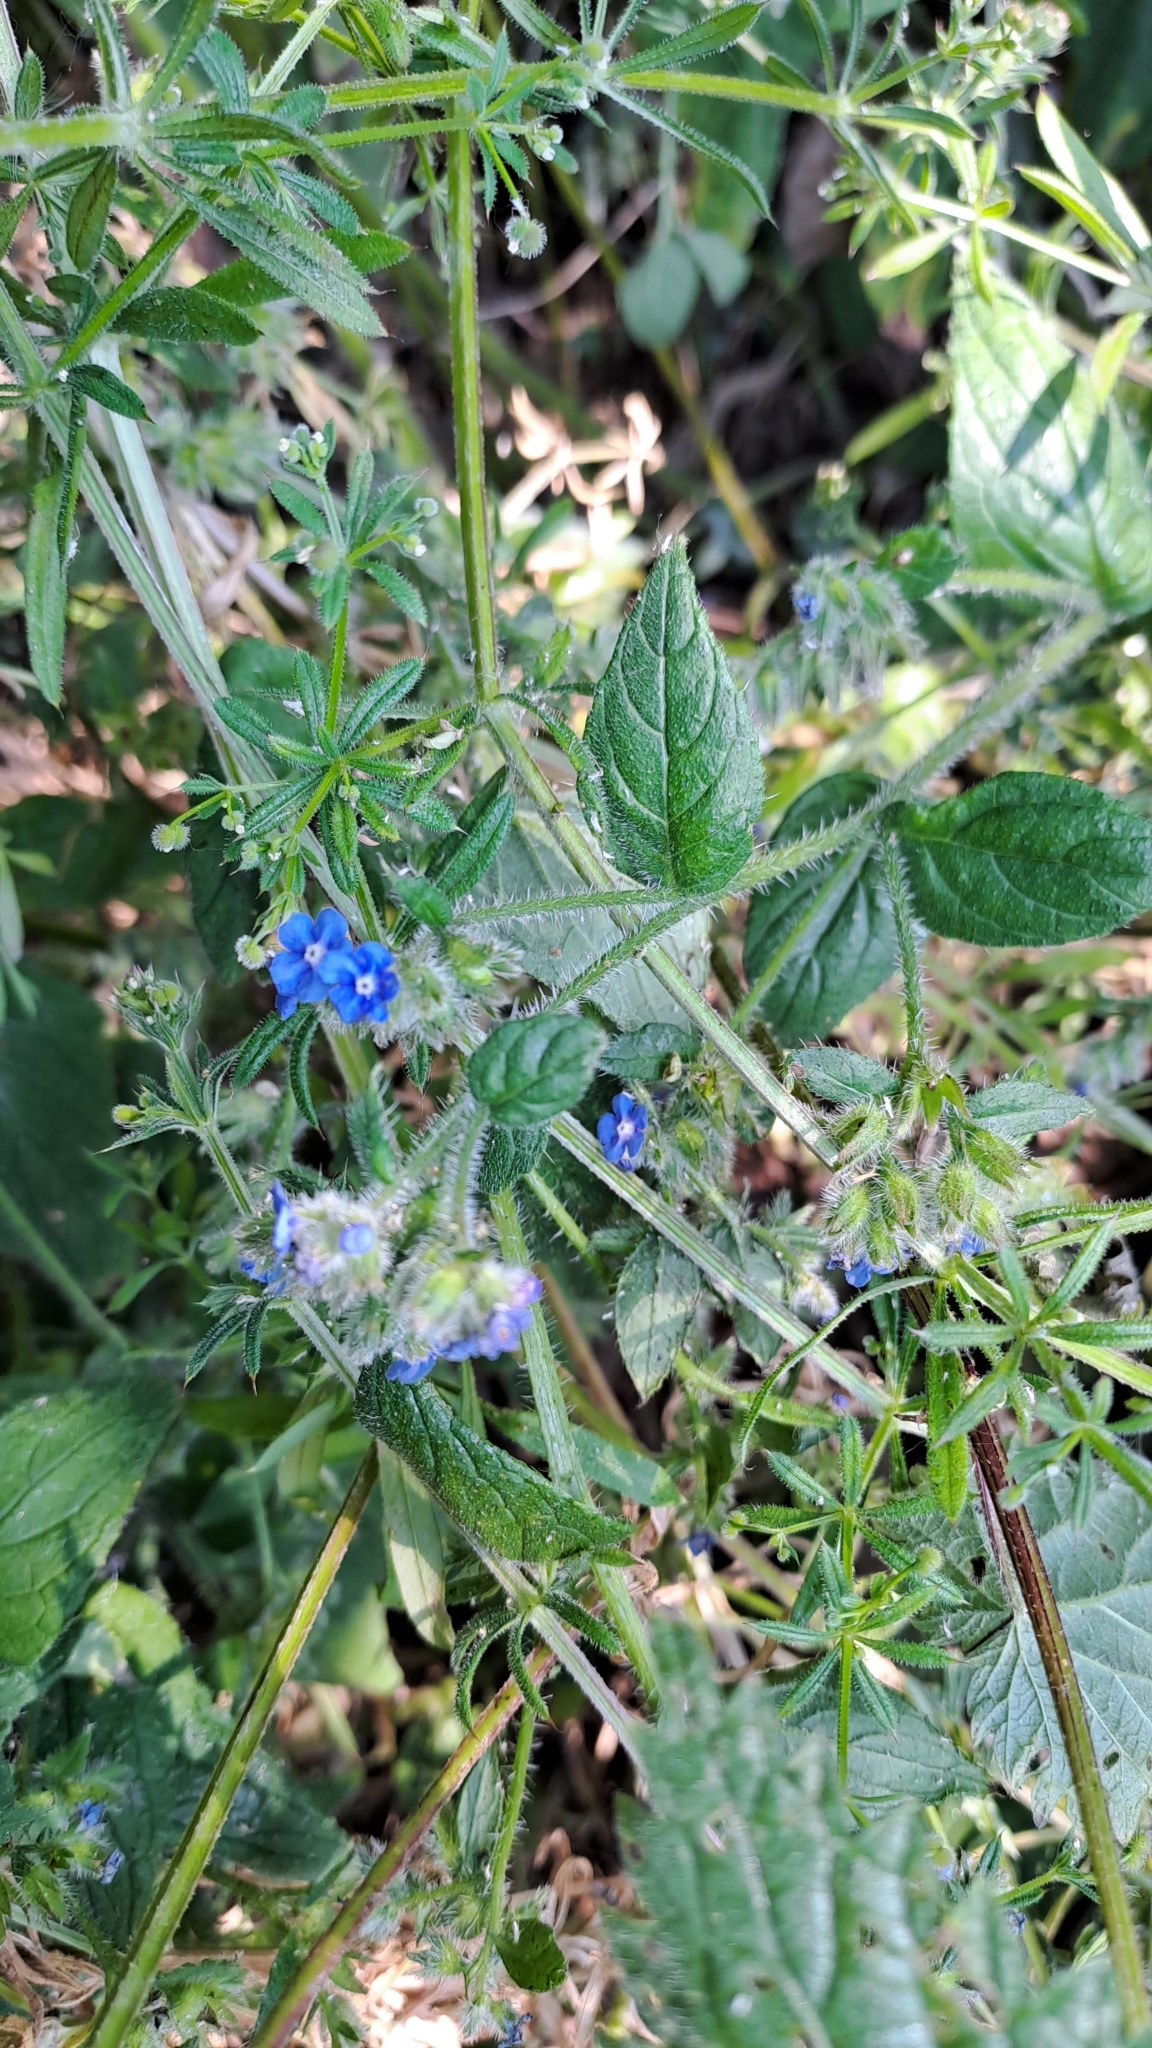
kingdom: Plantae
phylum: Tracheophyta
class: Magnoliopsida
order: Boraginales
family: Boraginaceae
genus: Pentaglottis
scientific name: Pentaglottis sempervirens
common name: Green alkanet
